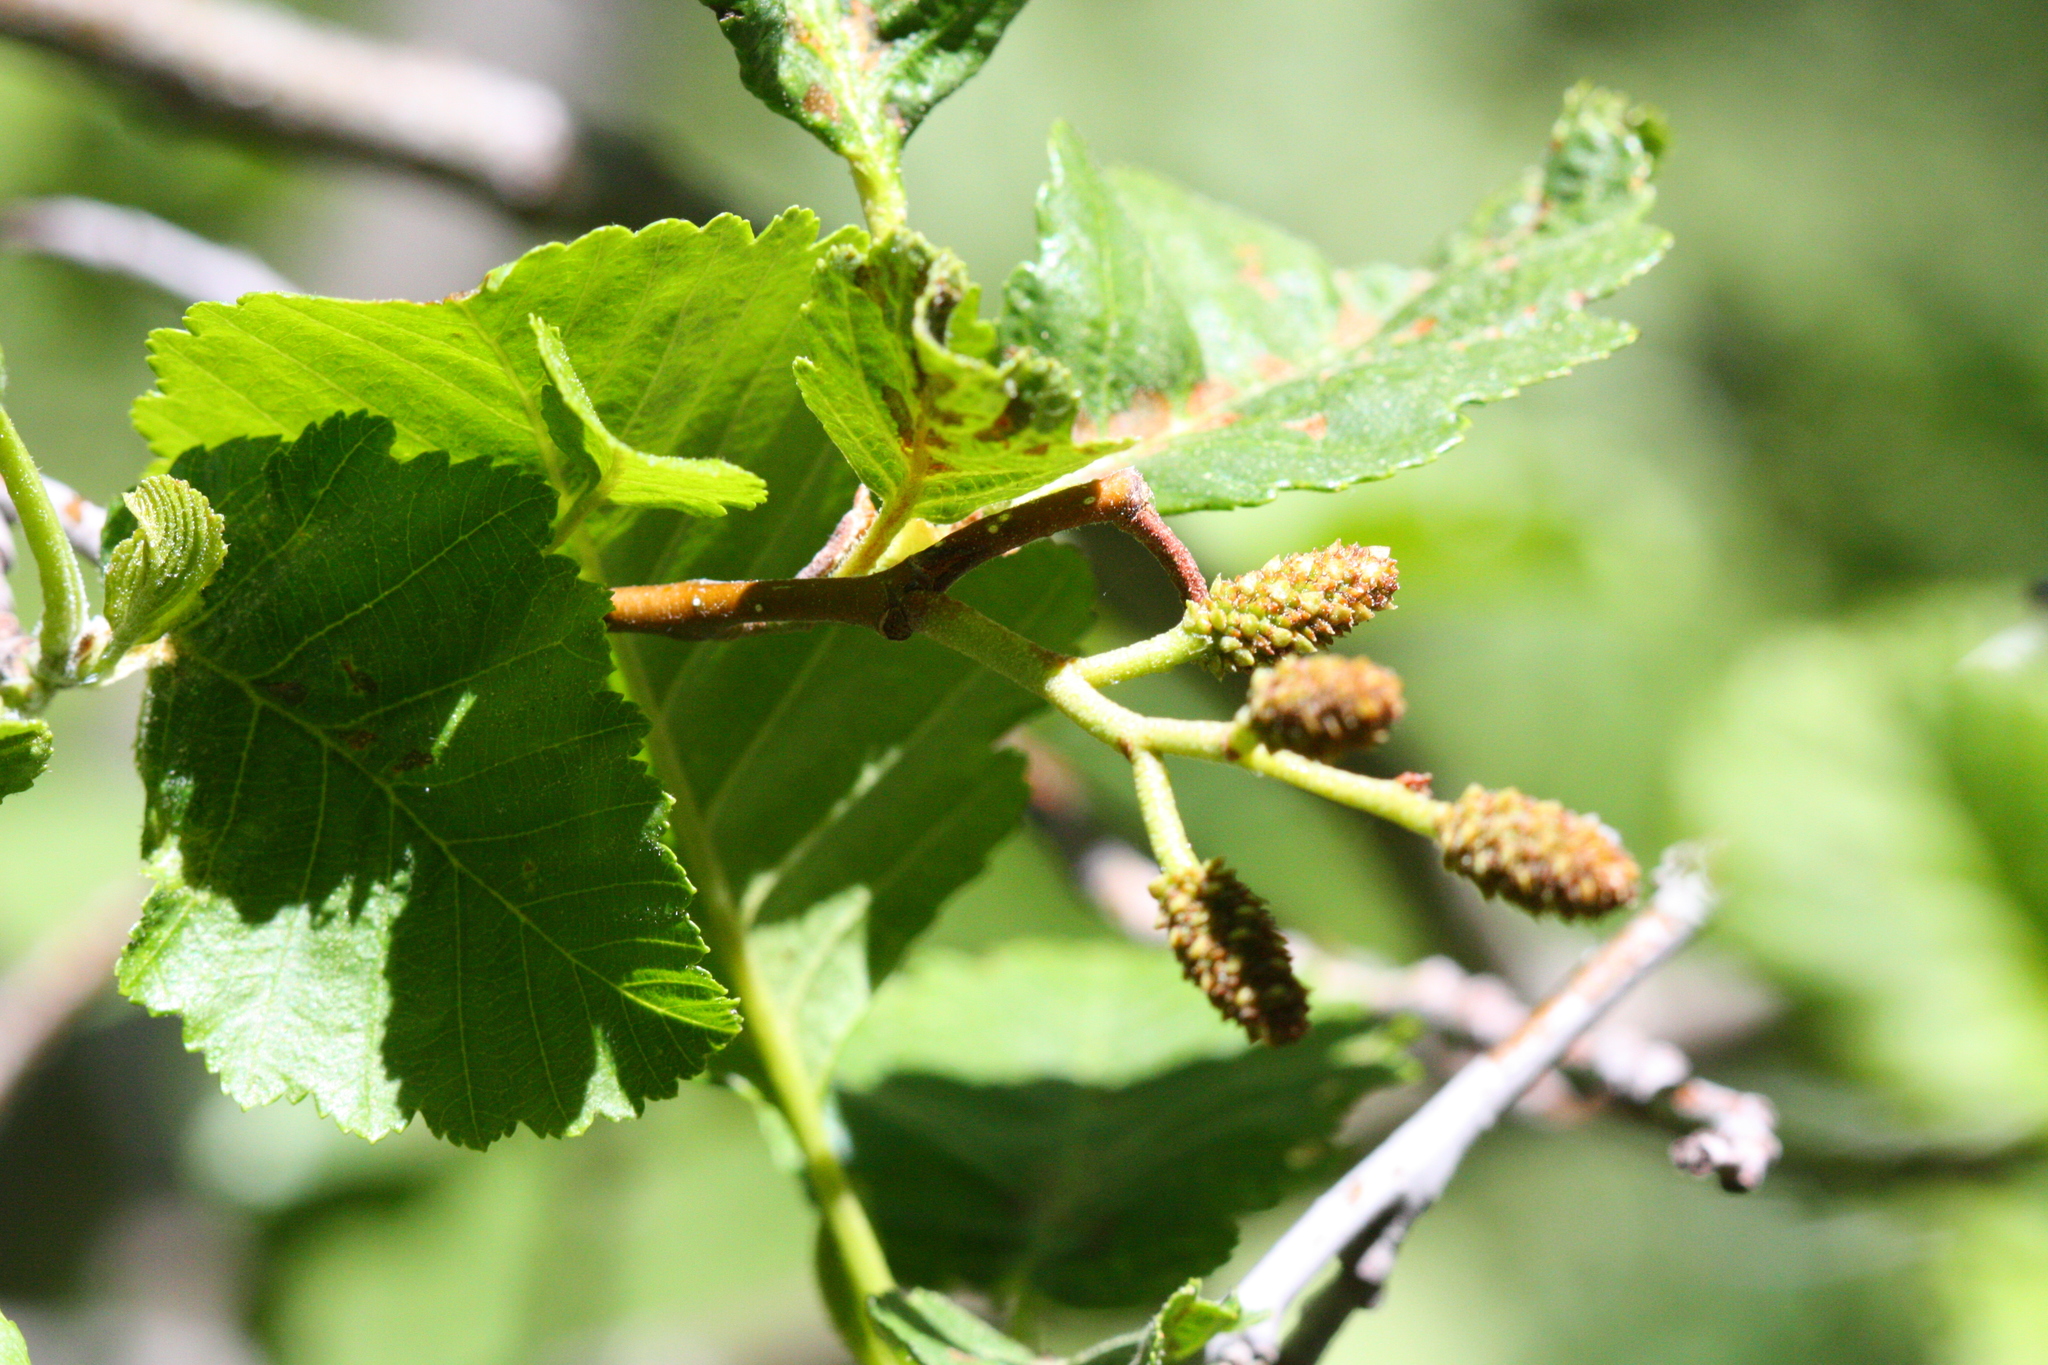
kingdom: Plantae
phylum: Tracheophyta
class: Magnoliopsida
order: Fagales
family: Betulaceae
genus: Alnus
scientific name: Alnus incana
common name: Grey alder
